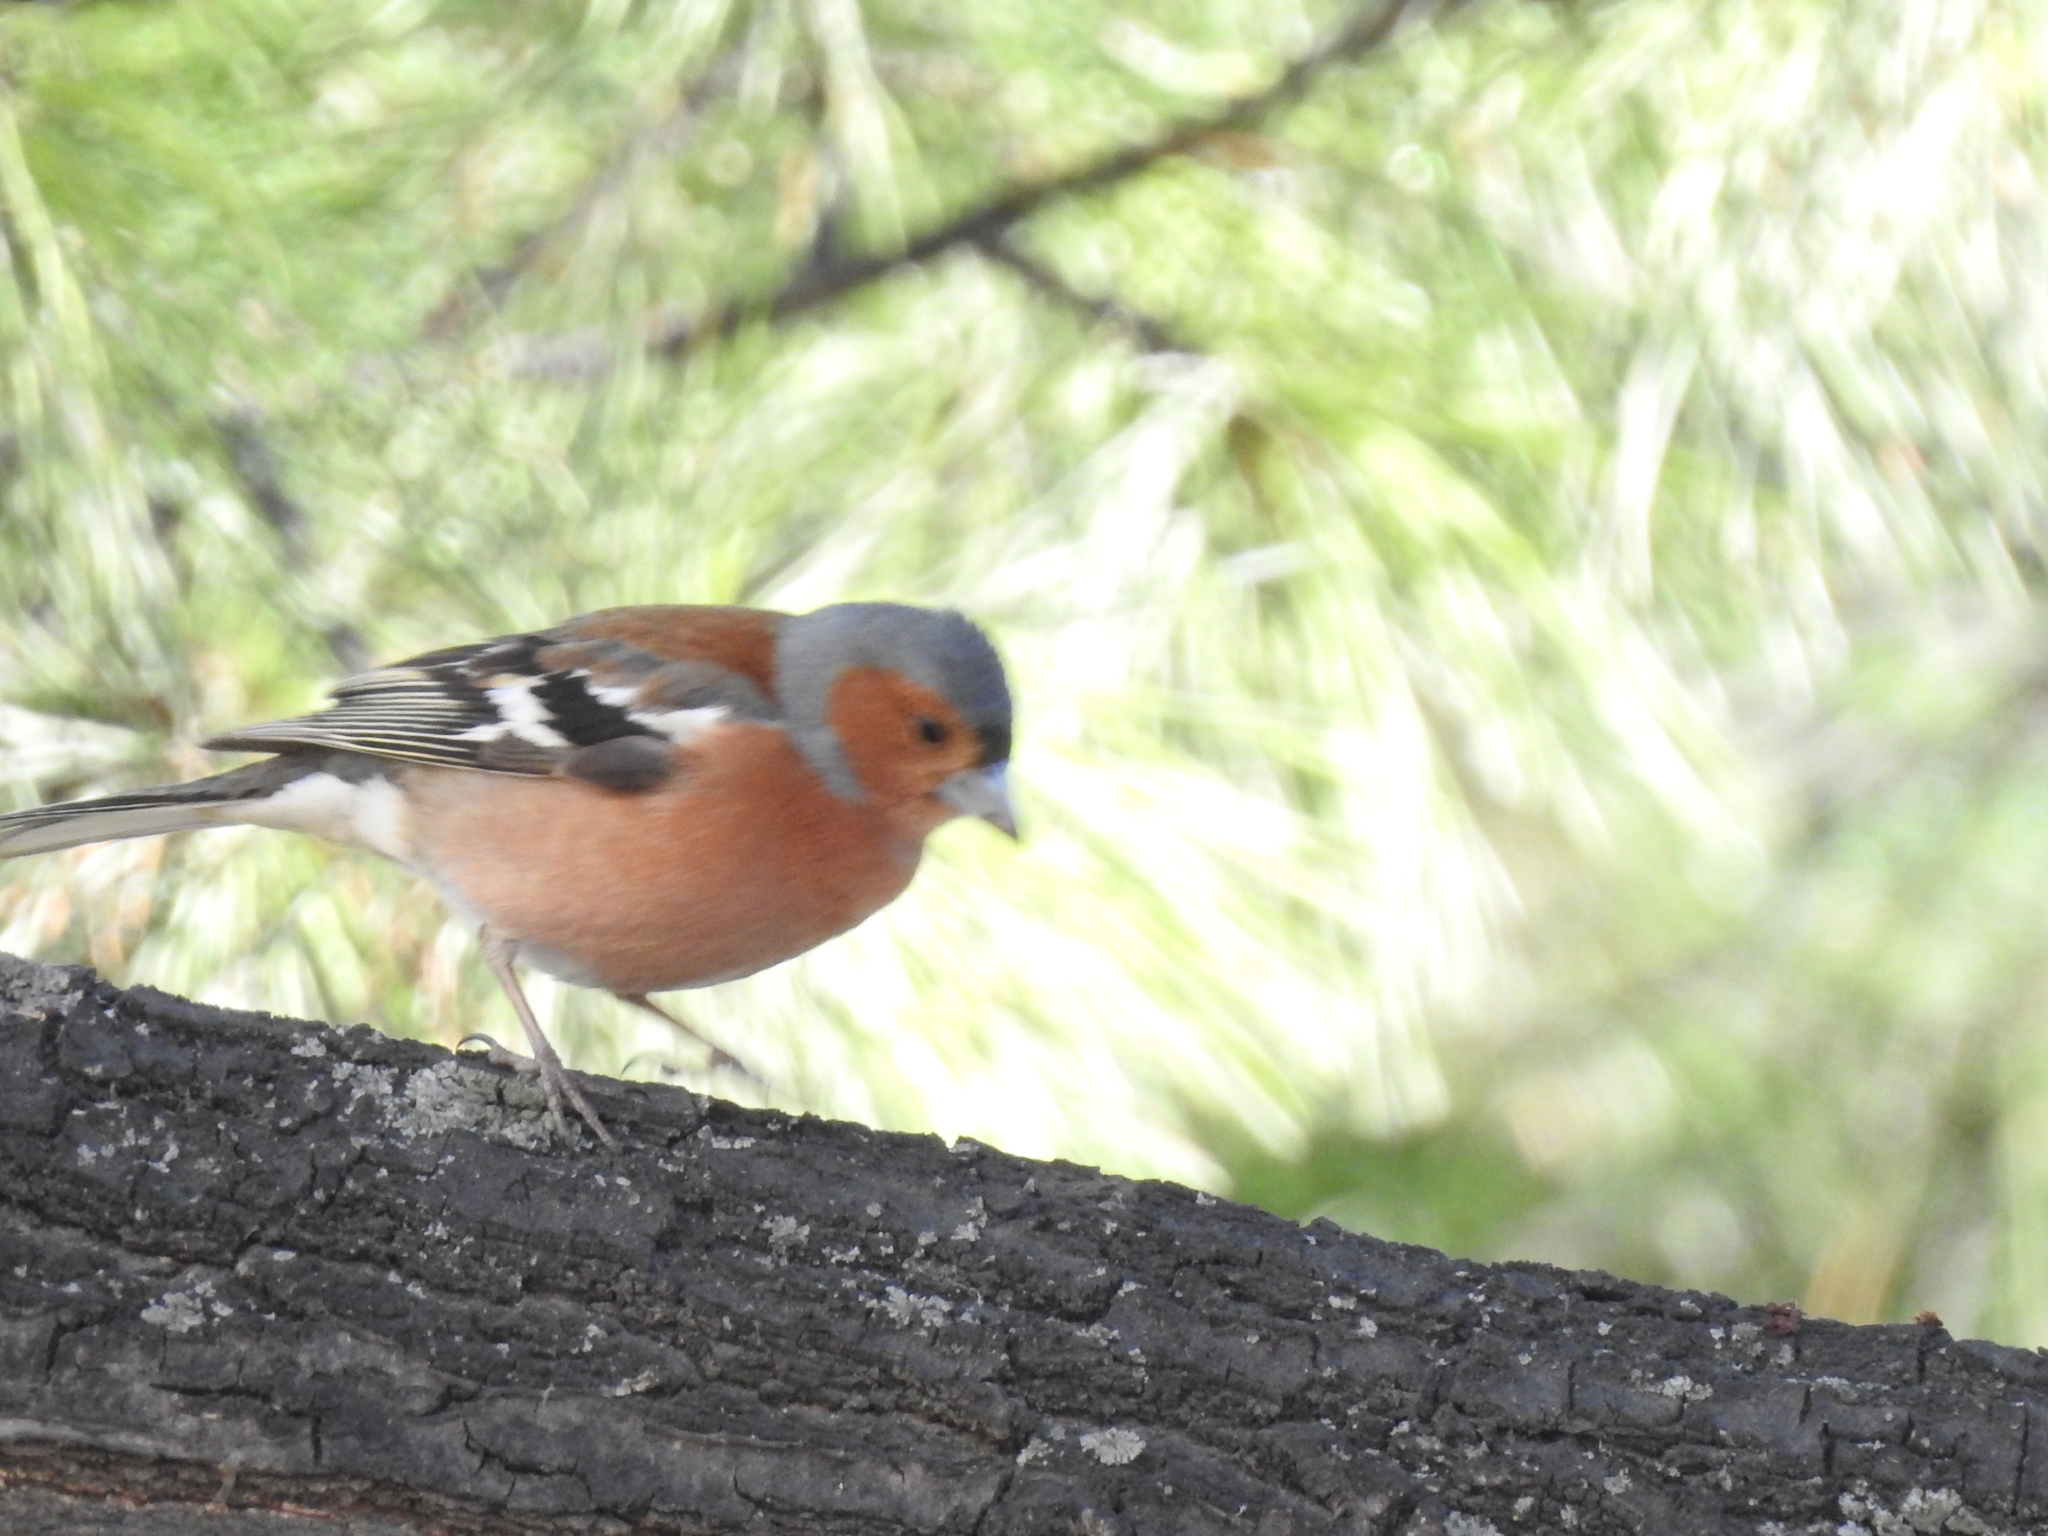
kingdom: Animalia
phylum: Chordata
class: Aves
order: Passeriformes
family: Fringillidae
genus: Fringilla
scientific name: Fringilla coelebs
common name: Common chaffinch
